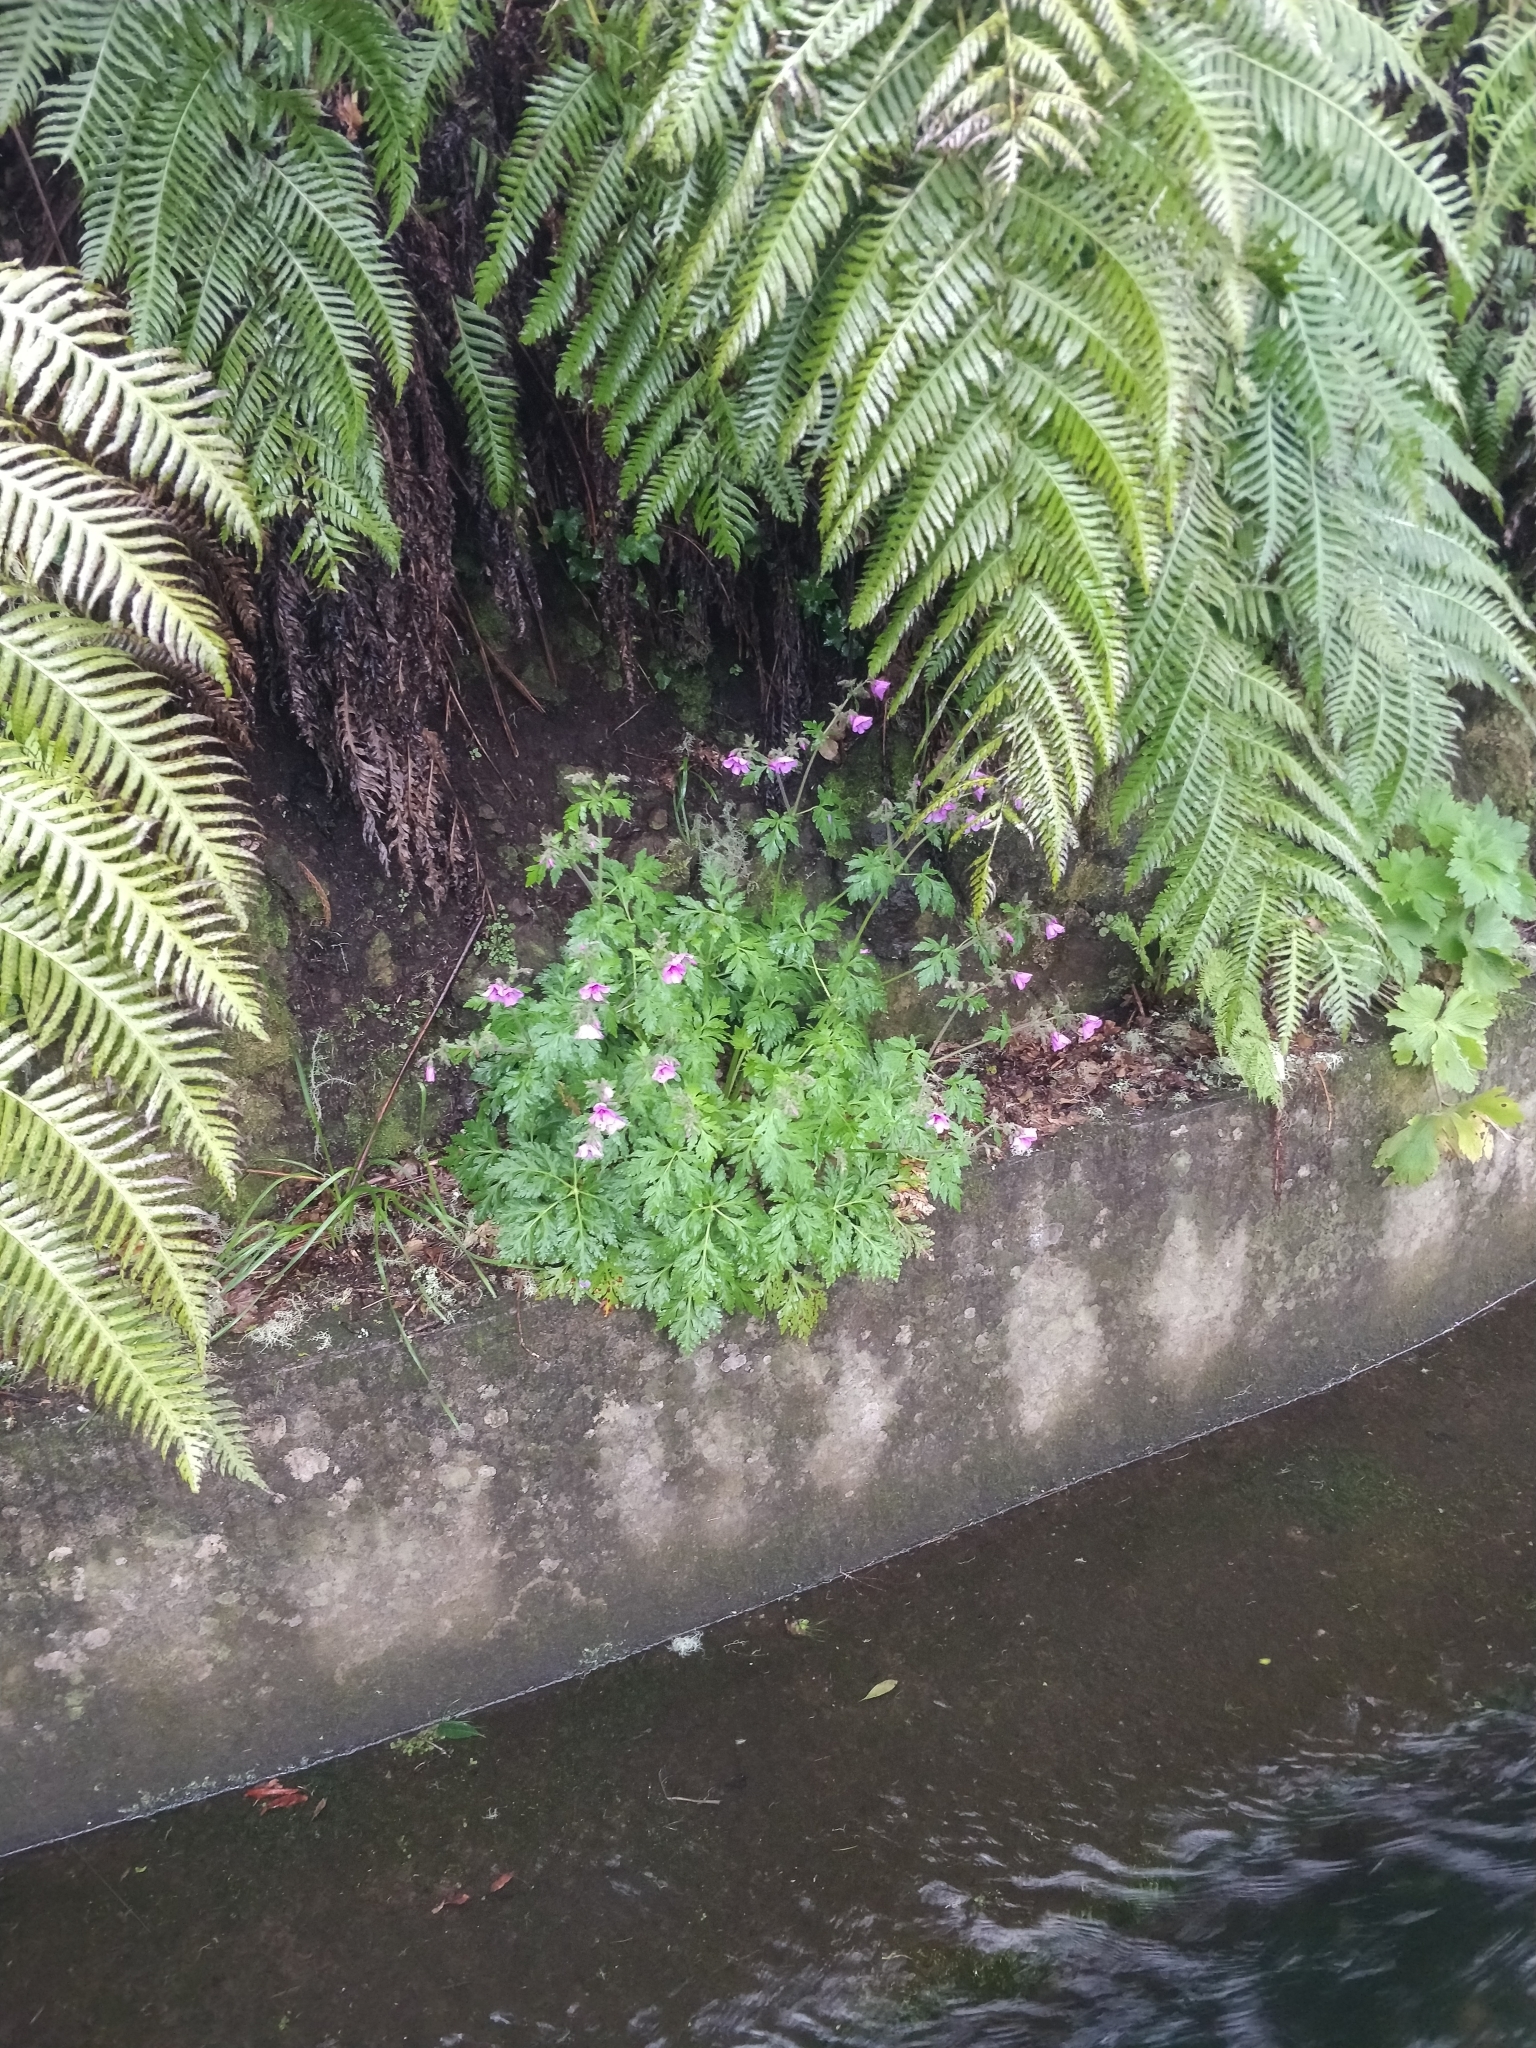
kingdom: Plantae
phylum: Tracheophyta
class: Magnoliopsida
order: Geraniales
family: Geraniaceae
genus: Geranium
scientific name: Geranium palmatum
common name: Canary island geranium
